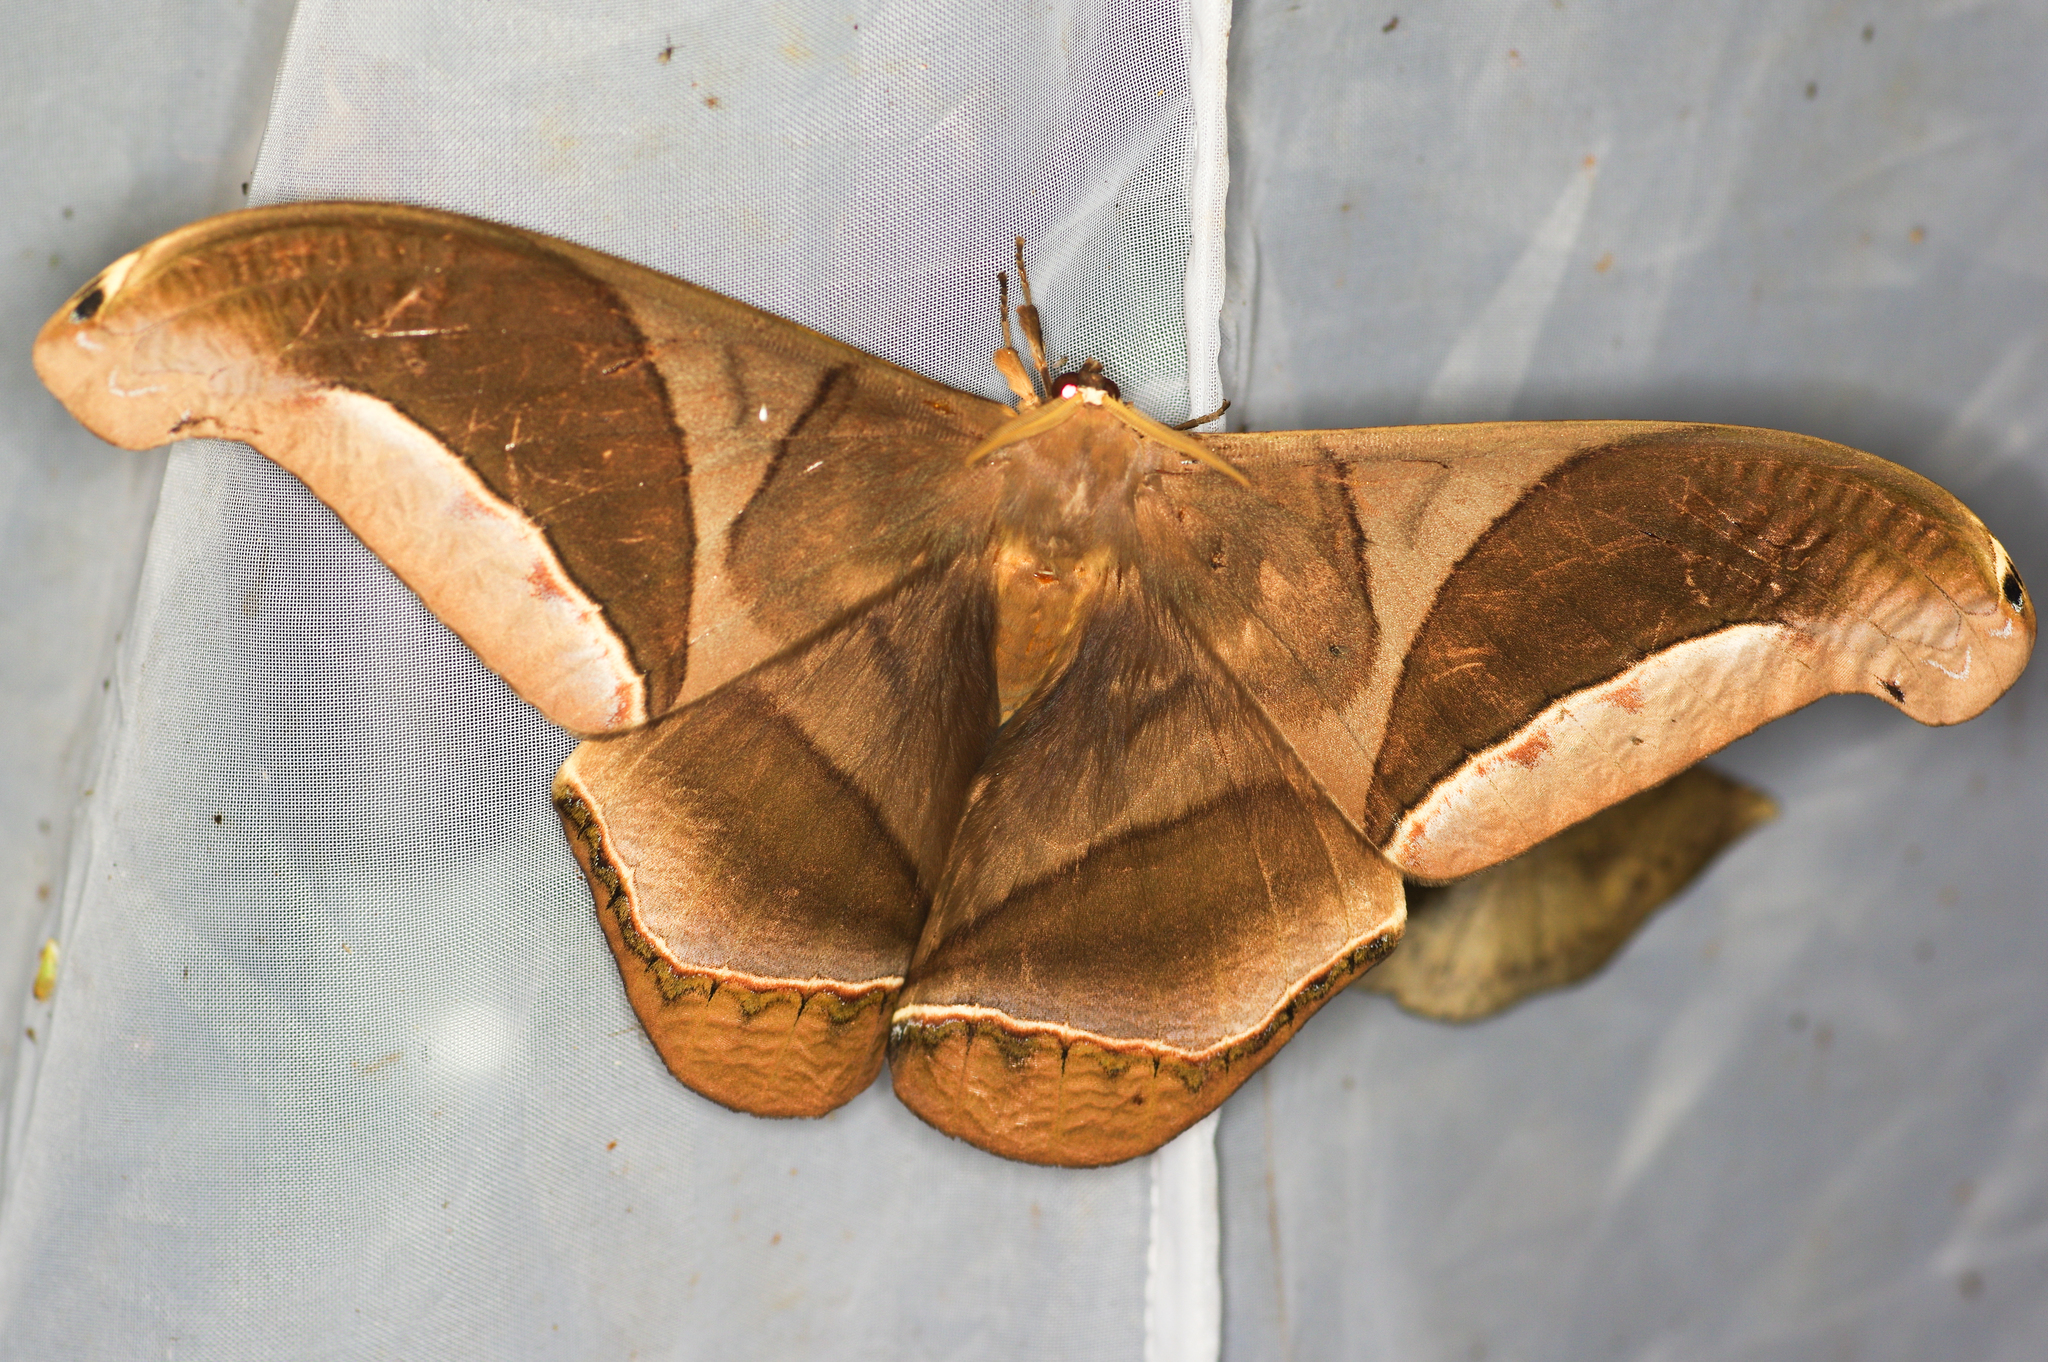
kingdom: Animalia
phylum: Arthropoda
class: Insecta
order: Lepidoptera
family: Saturniidae
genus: Rhescyntis
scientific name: Rhescyntis hippodamia
